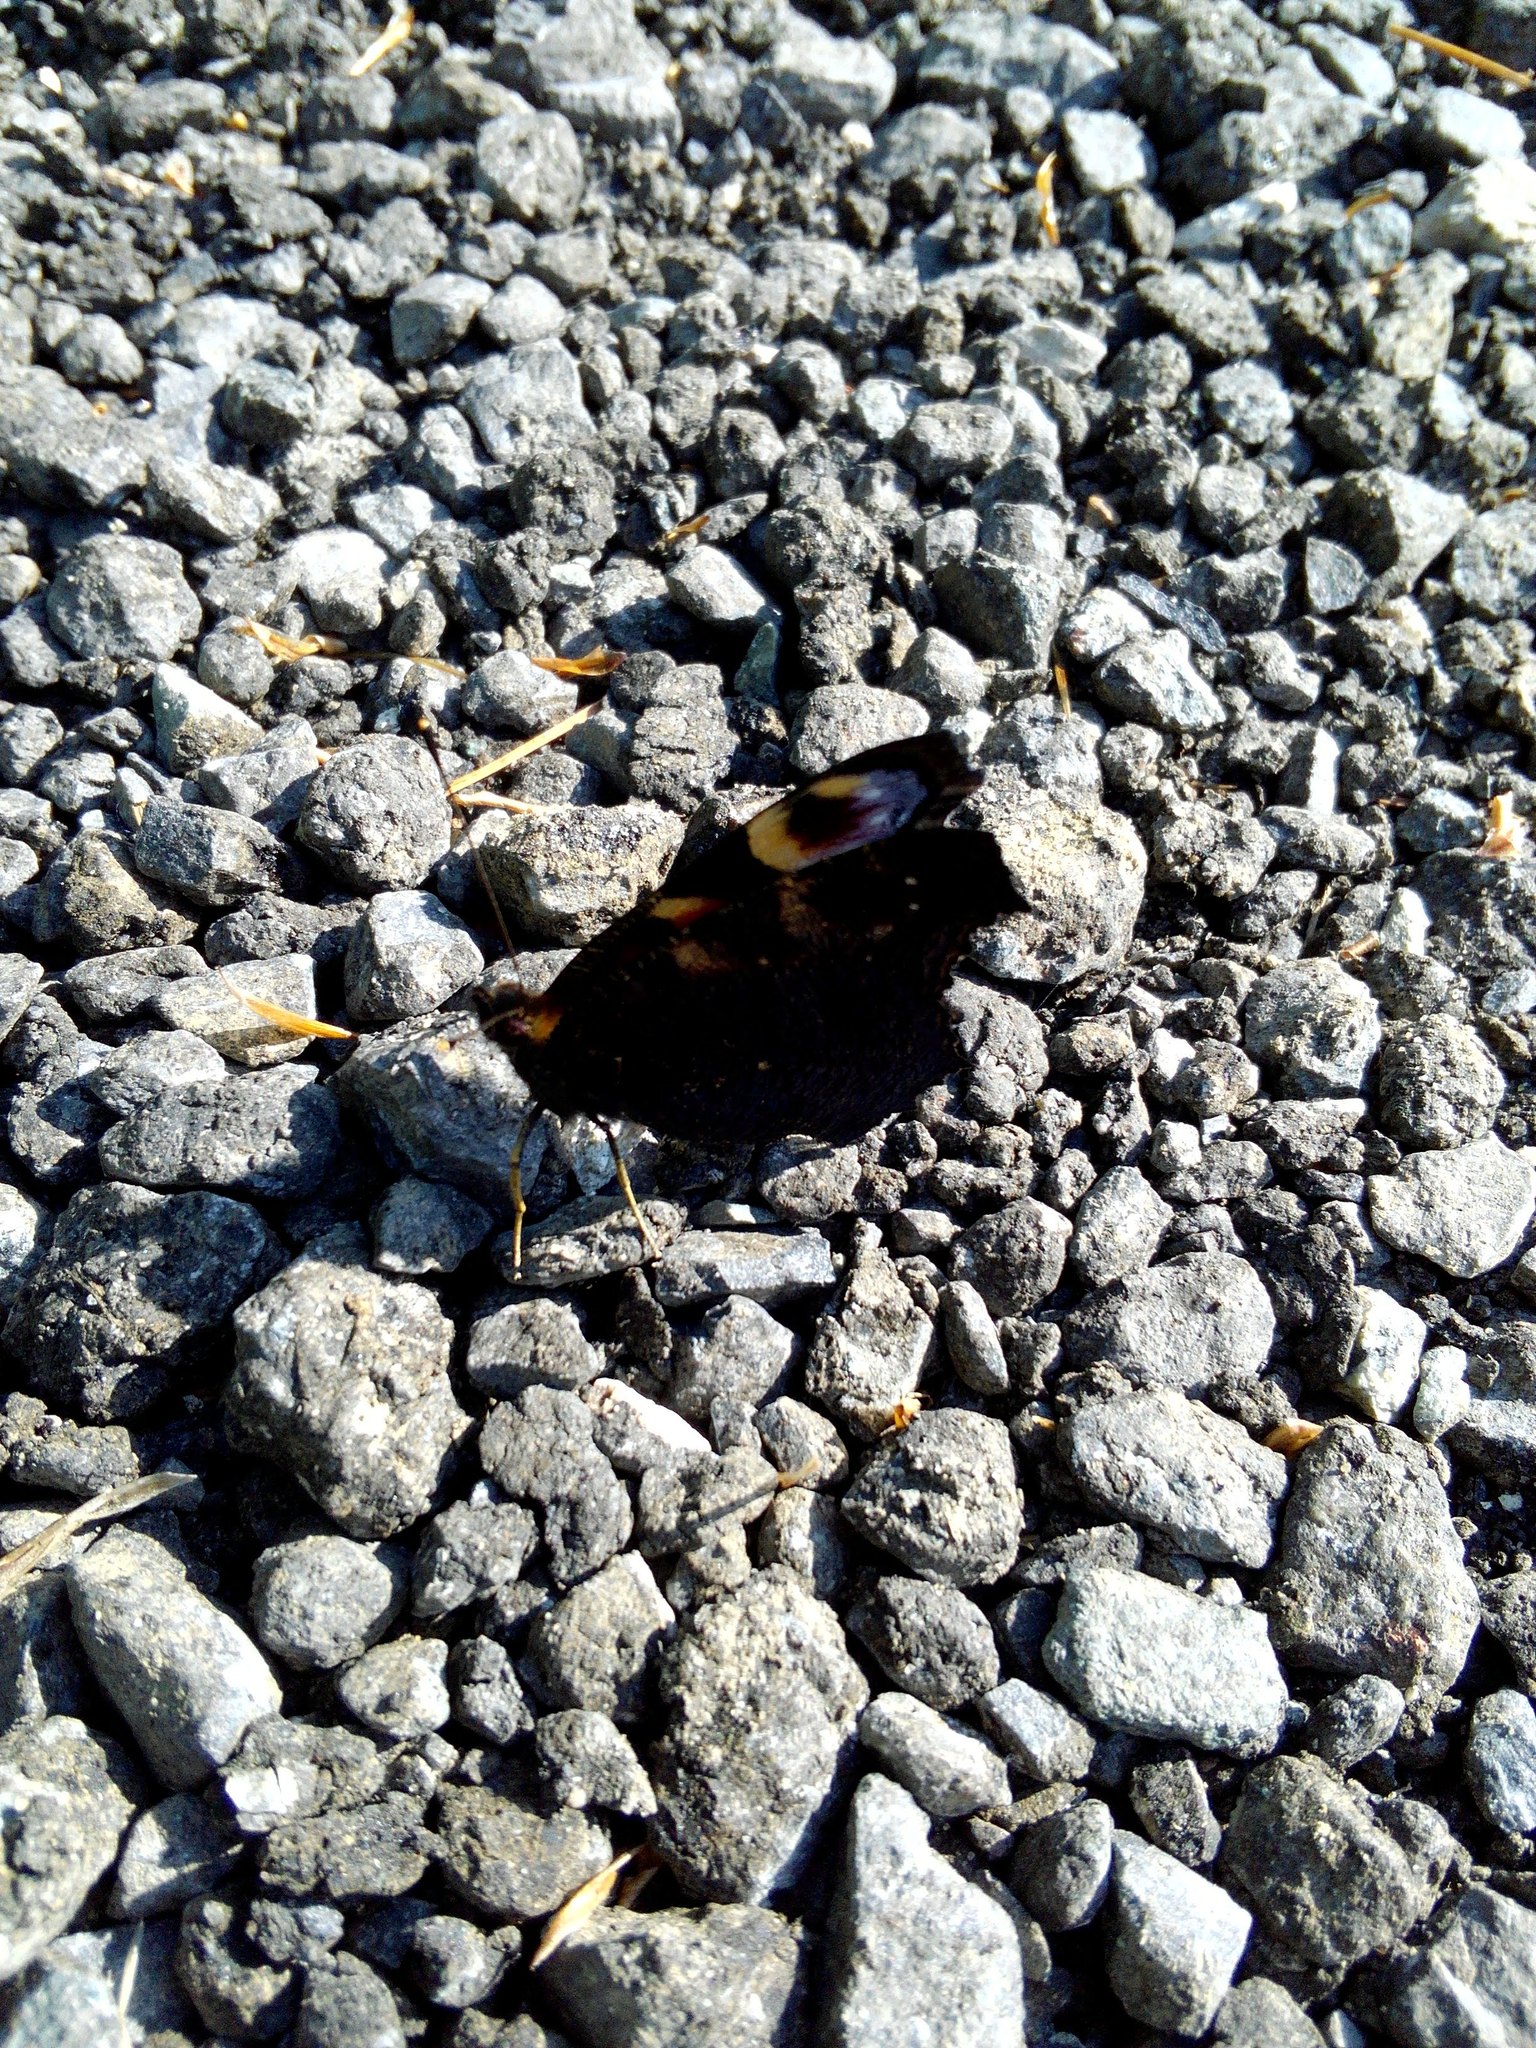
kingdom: Animalia
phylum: Arthropoda
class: Insecta
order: Lepidoptera
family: Nymphalidae
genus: Aglais
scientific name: Aglais io
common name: Peacock
